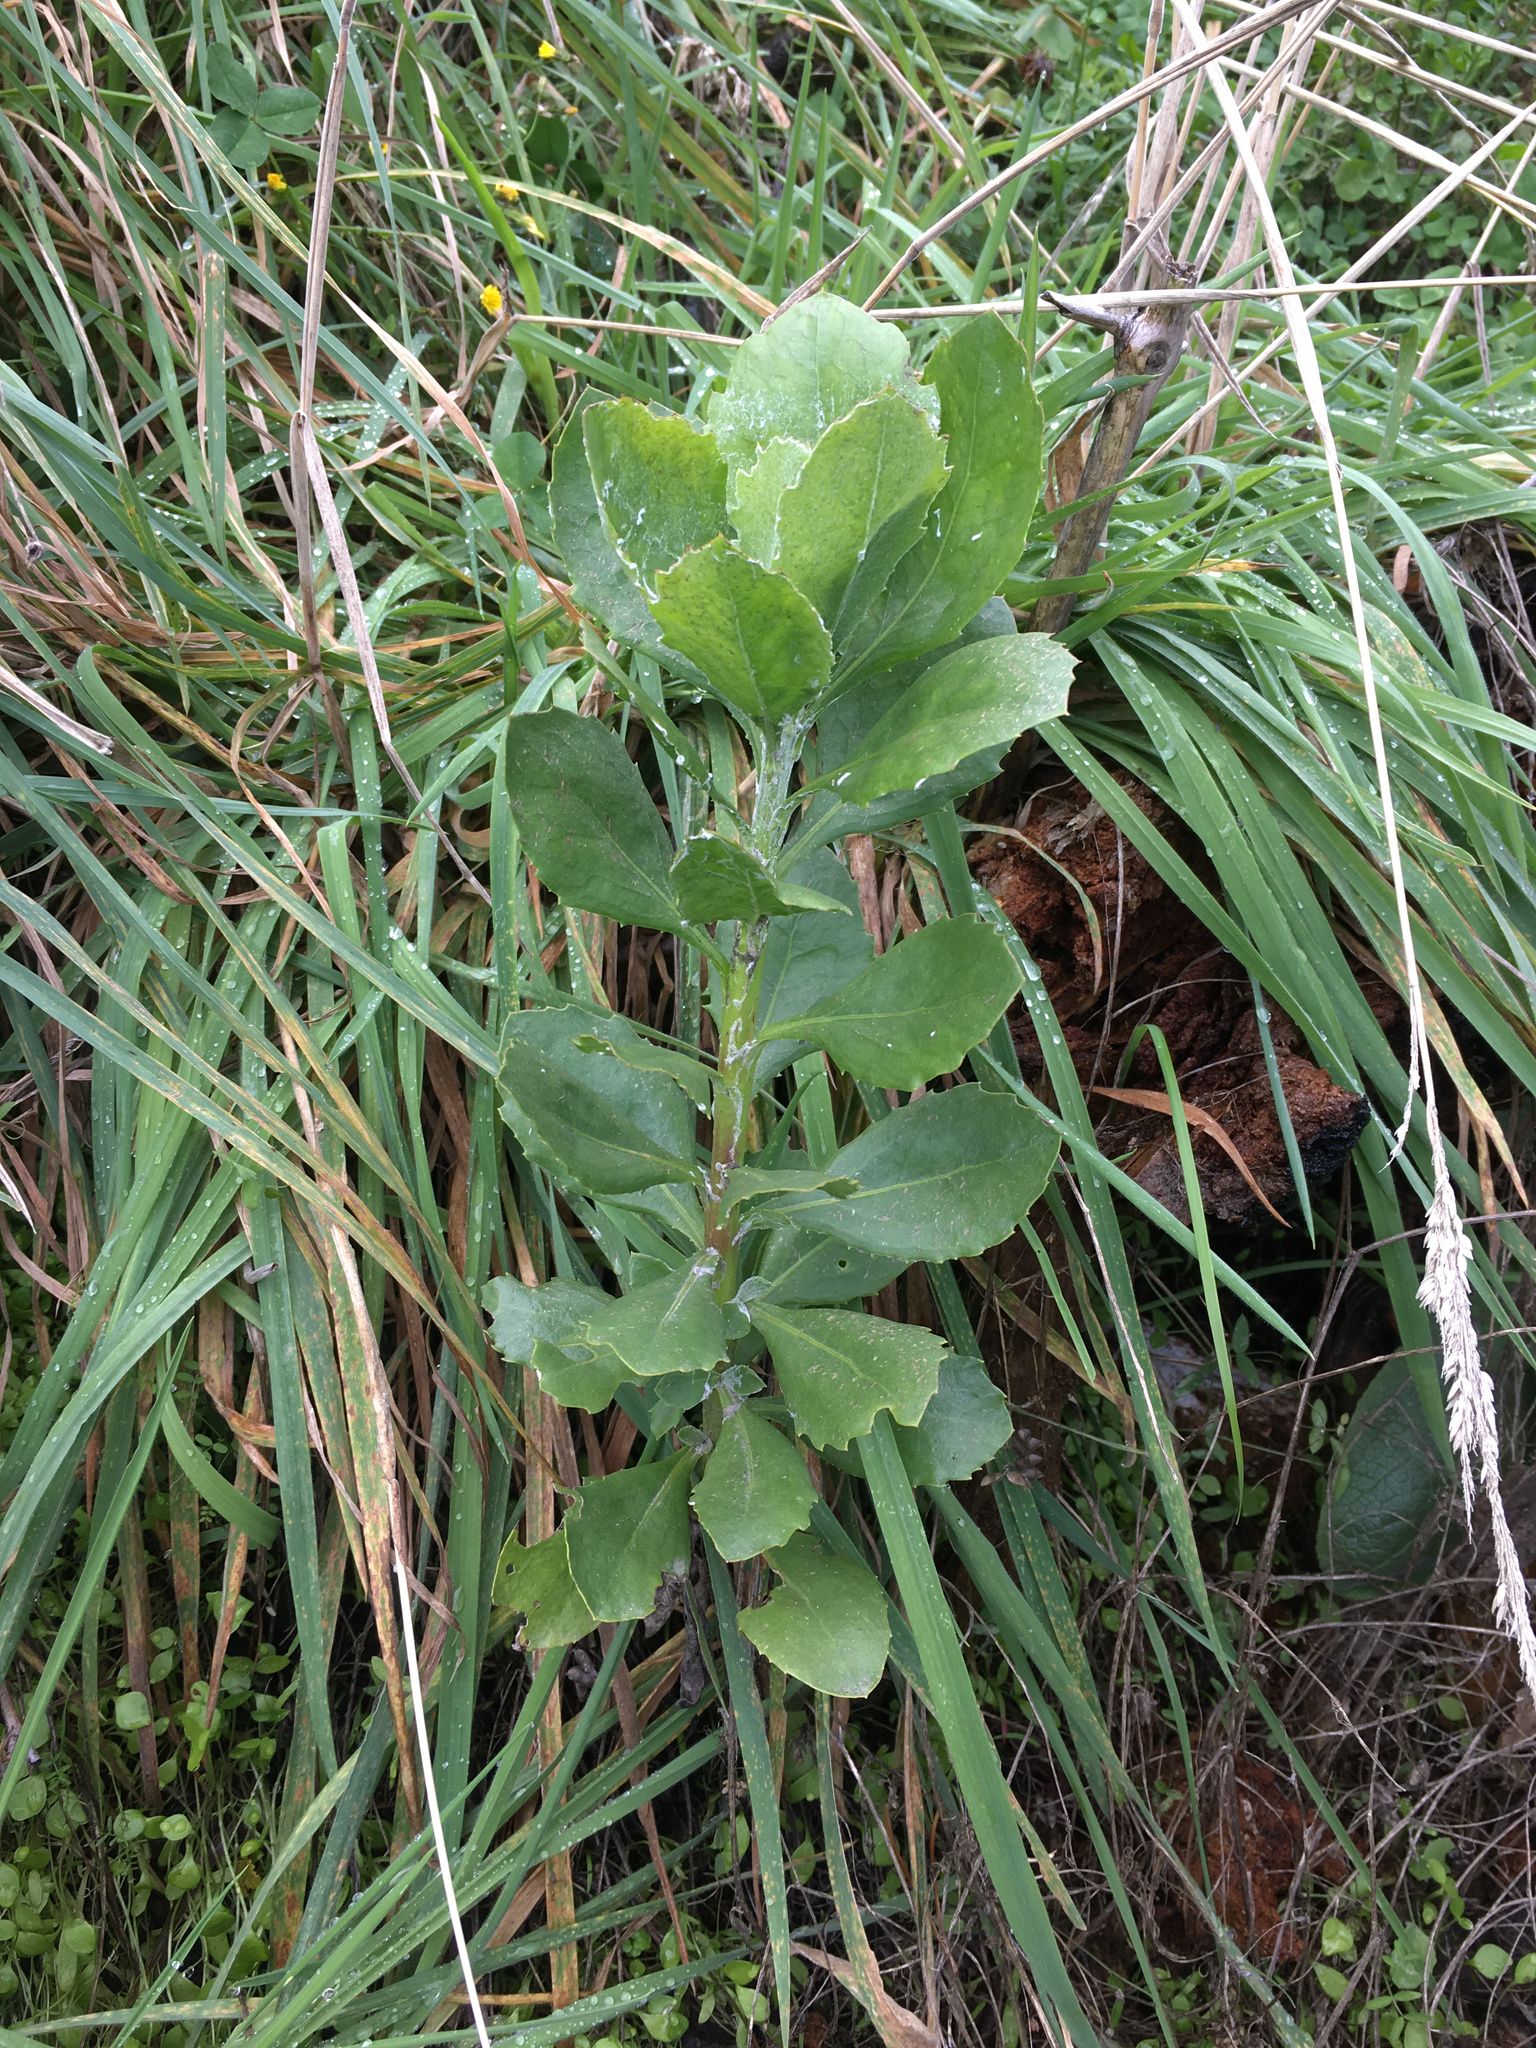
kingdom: Plantae
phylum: Tracheophyta
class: Magnoliopsida
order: Asterales
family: Asteraceae
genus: Osteospermum
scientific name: Osteospermum moniliferum
